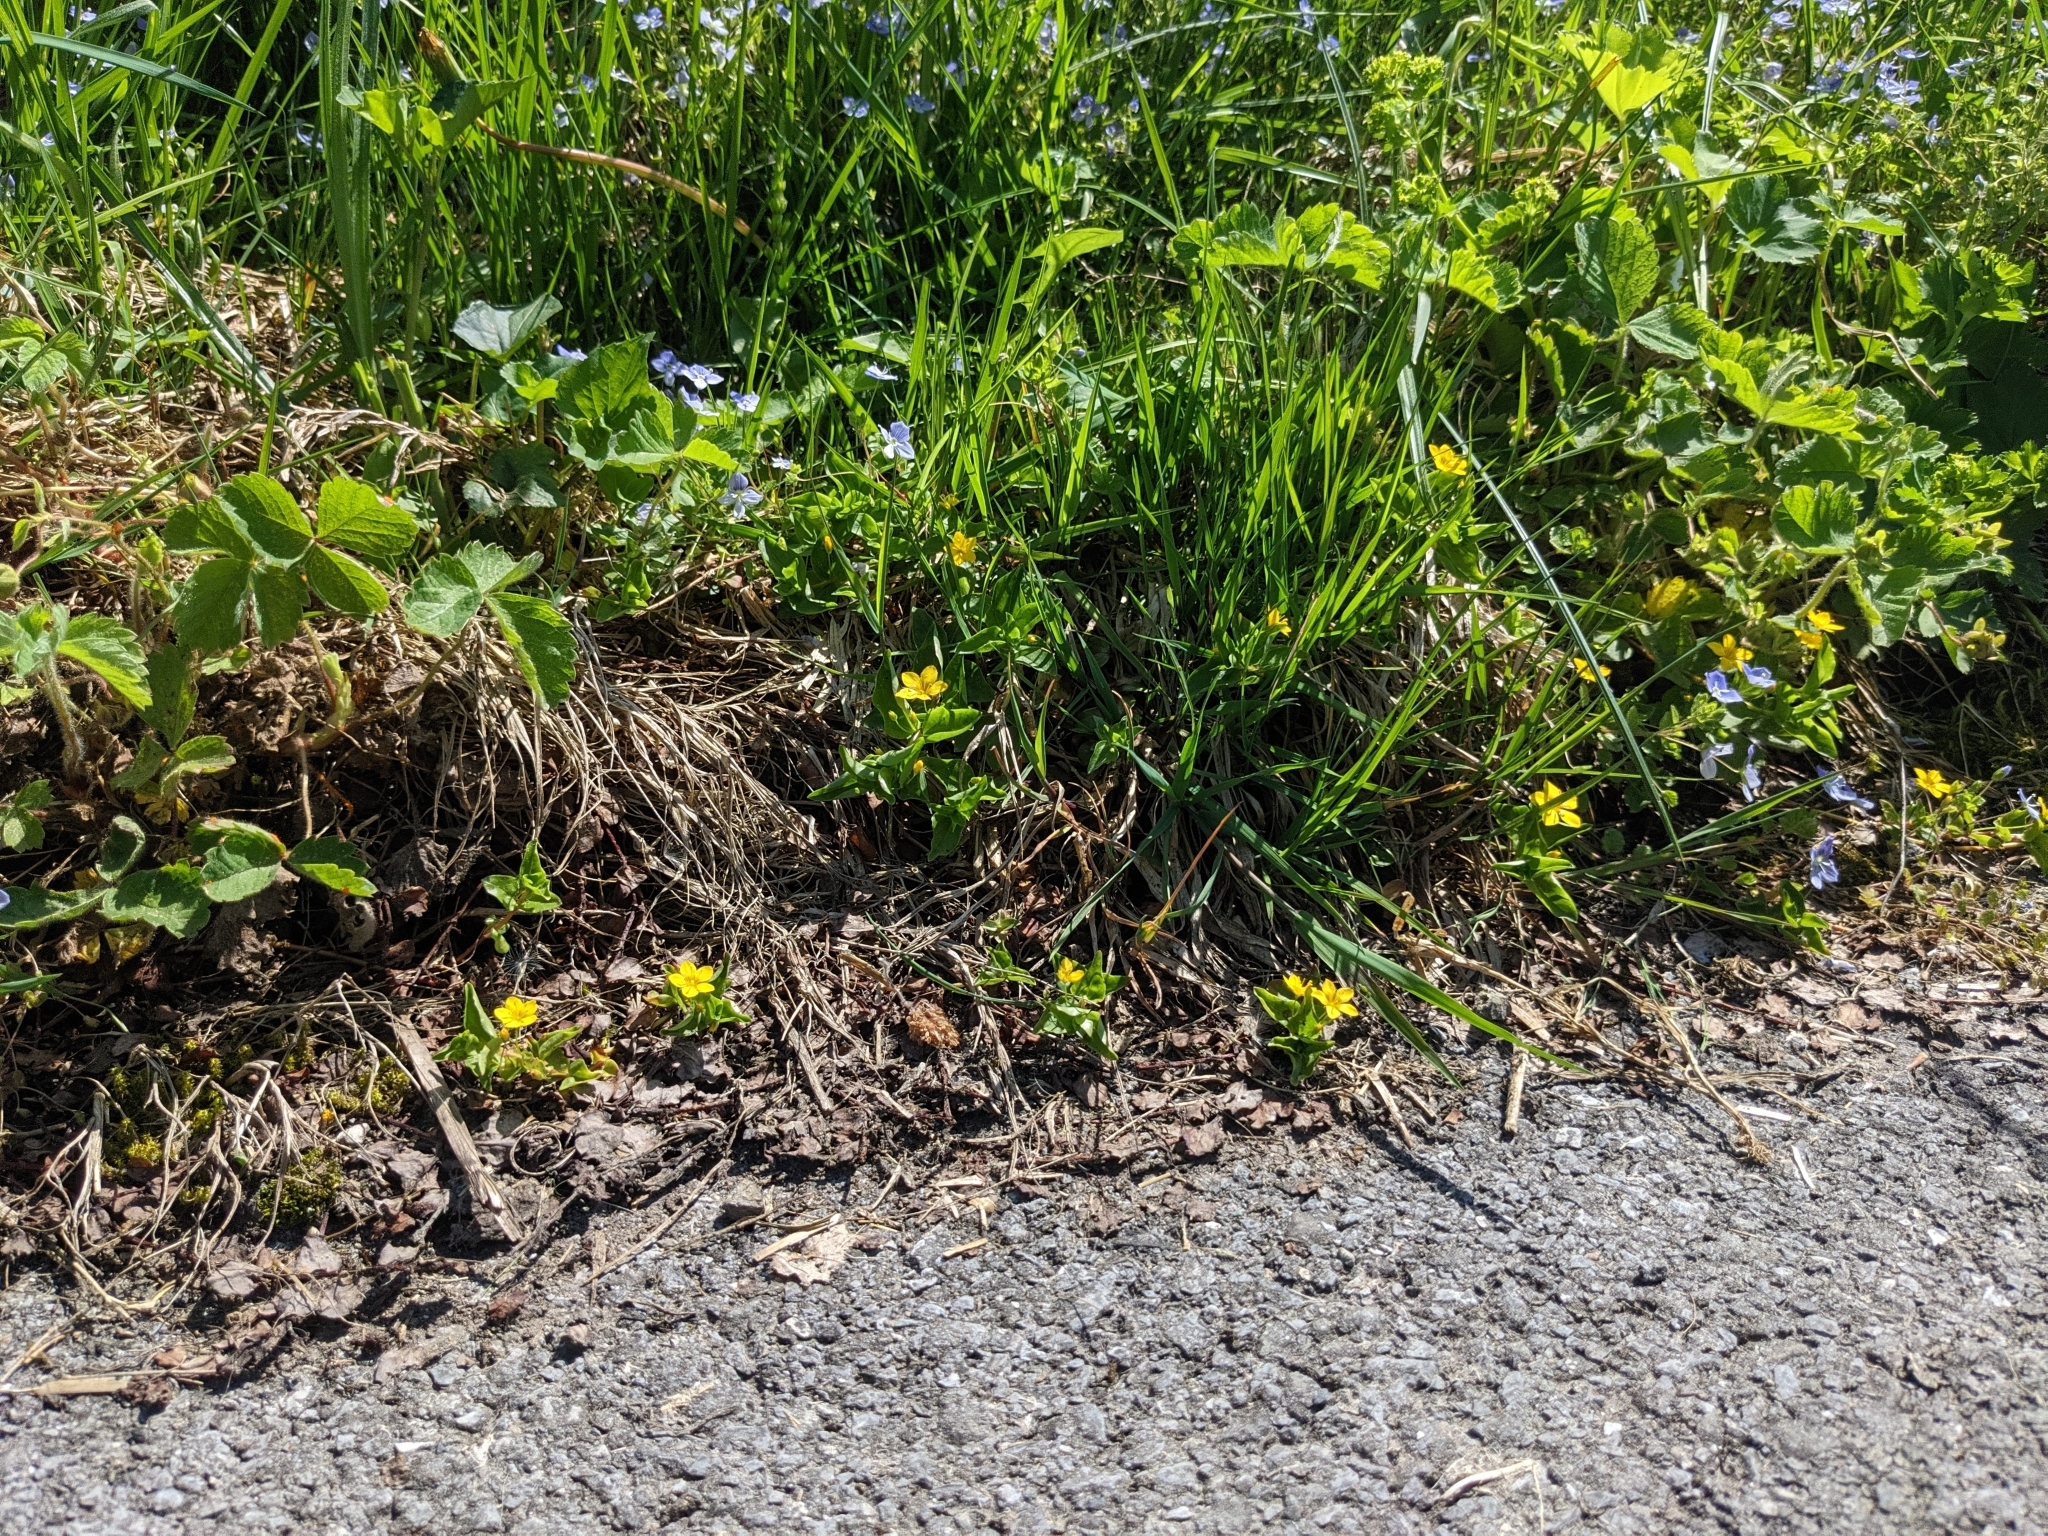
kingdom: Plantae
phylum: Tracheophyta
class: Magnoliopsida
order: Ericales
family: Primulaceae
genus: Lysimachia
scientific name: Lysimachia nemorum
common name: Yellow pimpernel
